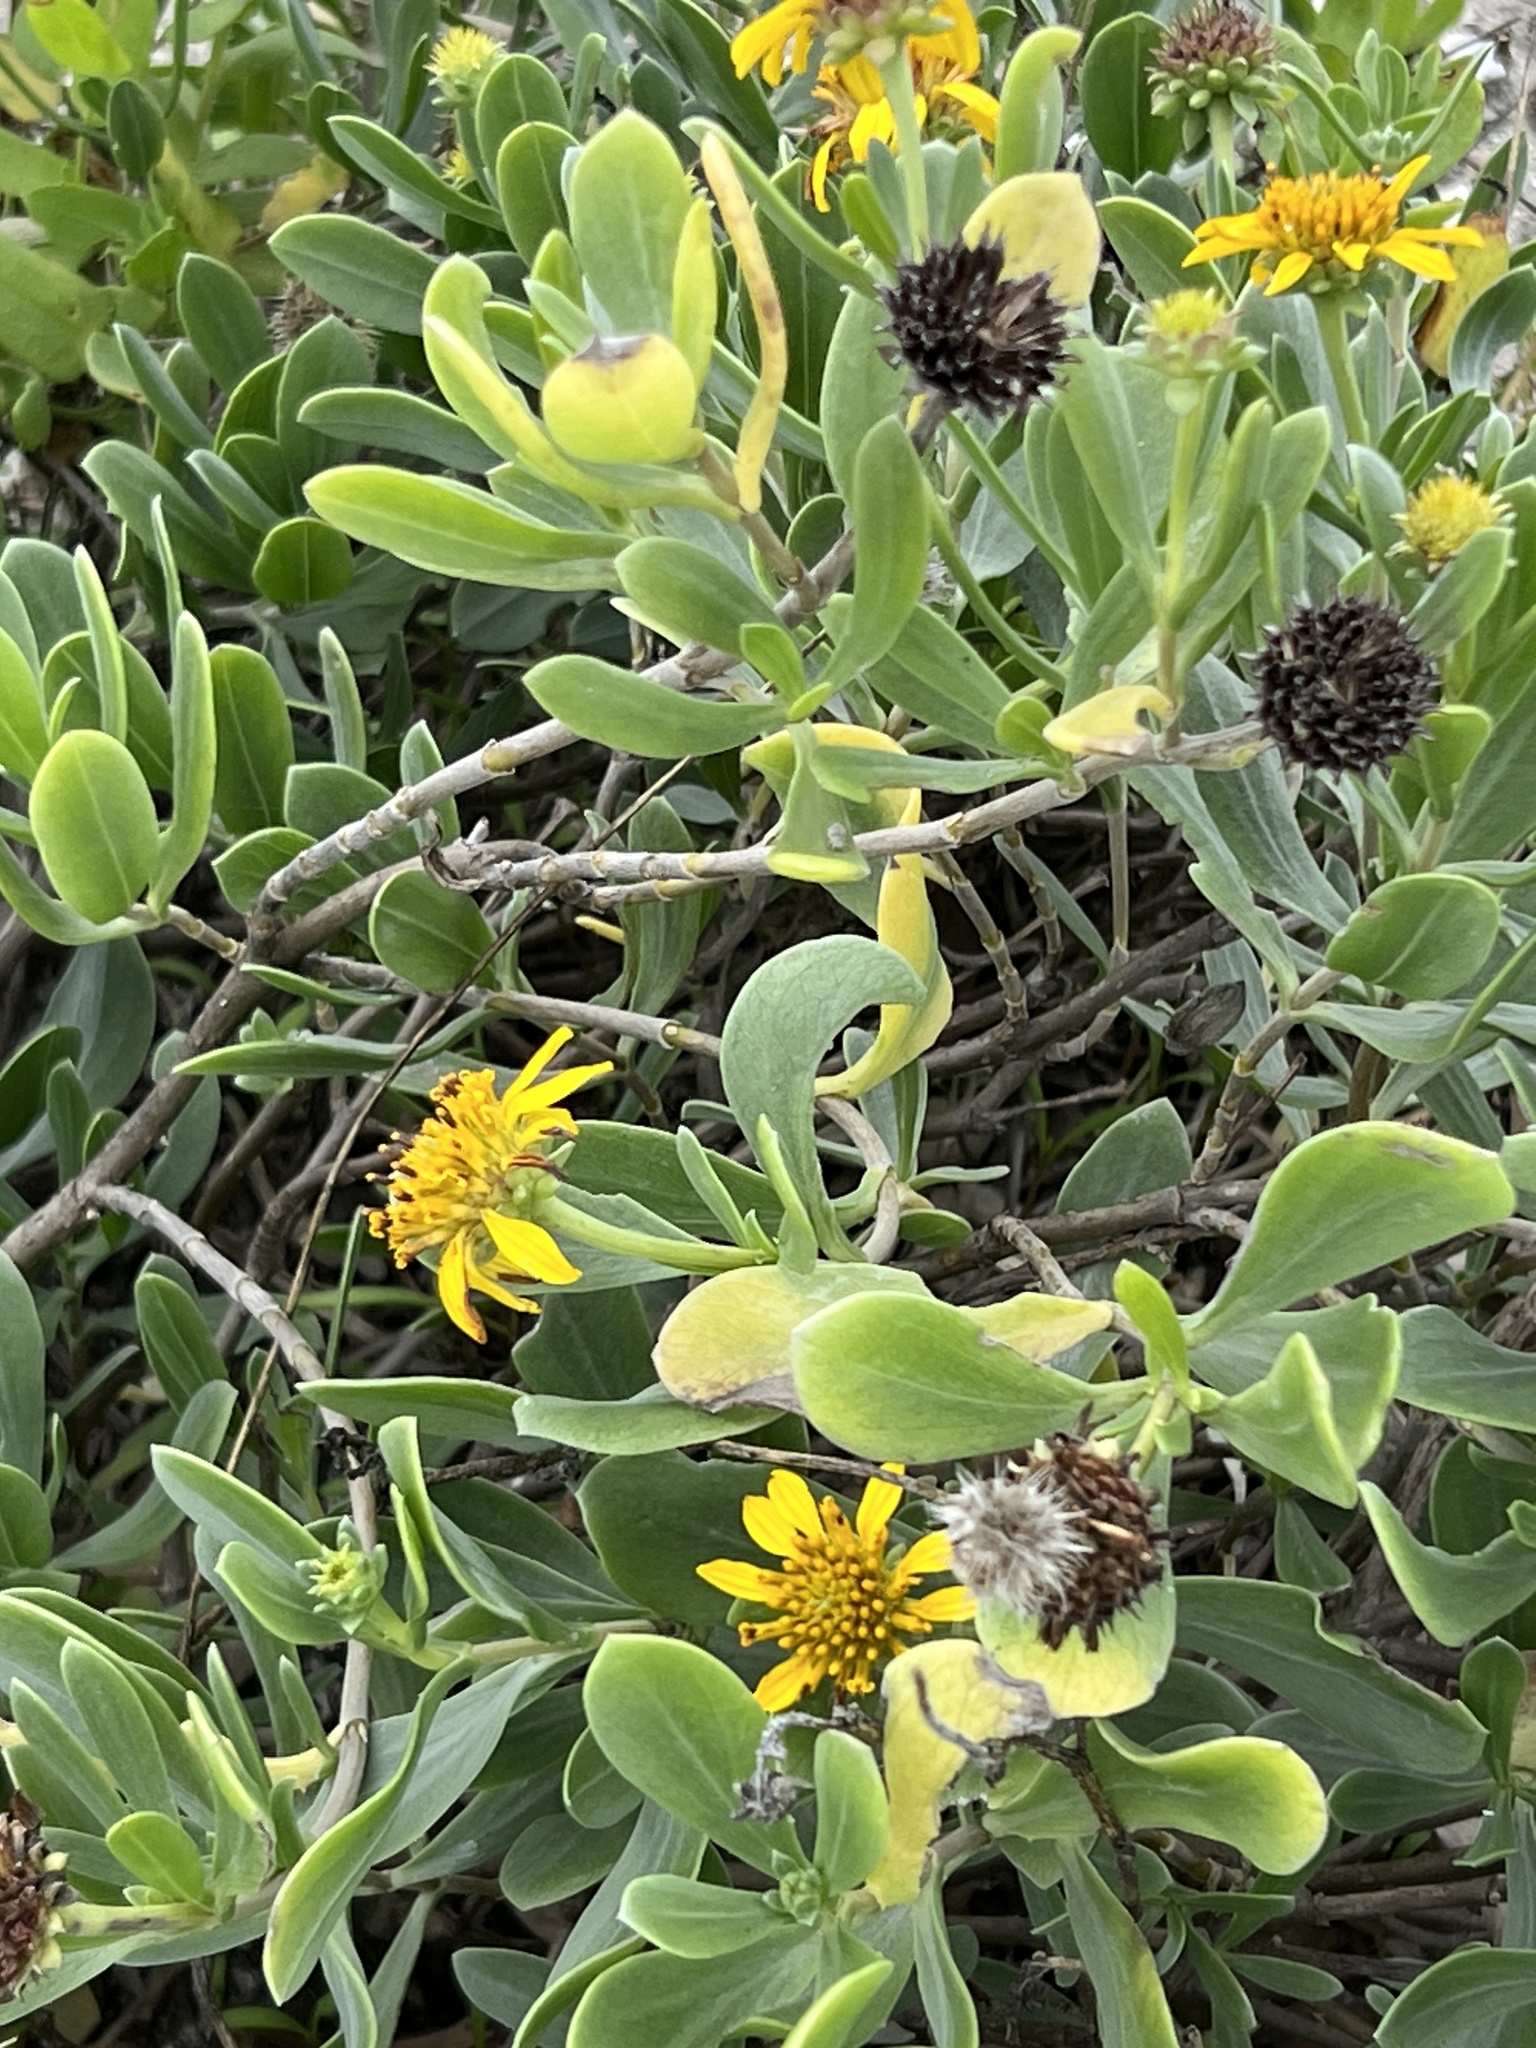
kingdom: Plantae
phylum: Tracheophyta
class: Magnoliopsida
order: Asterales
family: Asteraceae
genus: Borrichia
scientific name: Borrichia frutescens
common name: Sea oxeye
